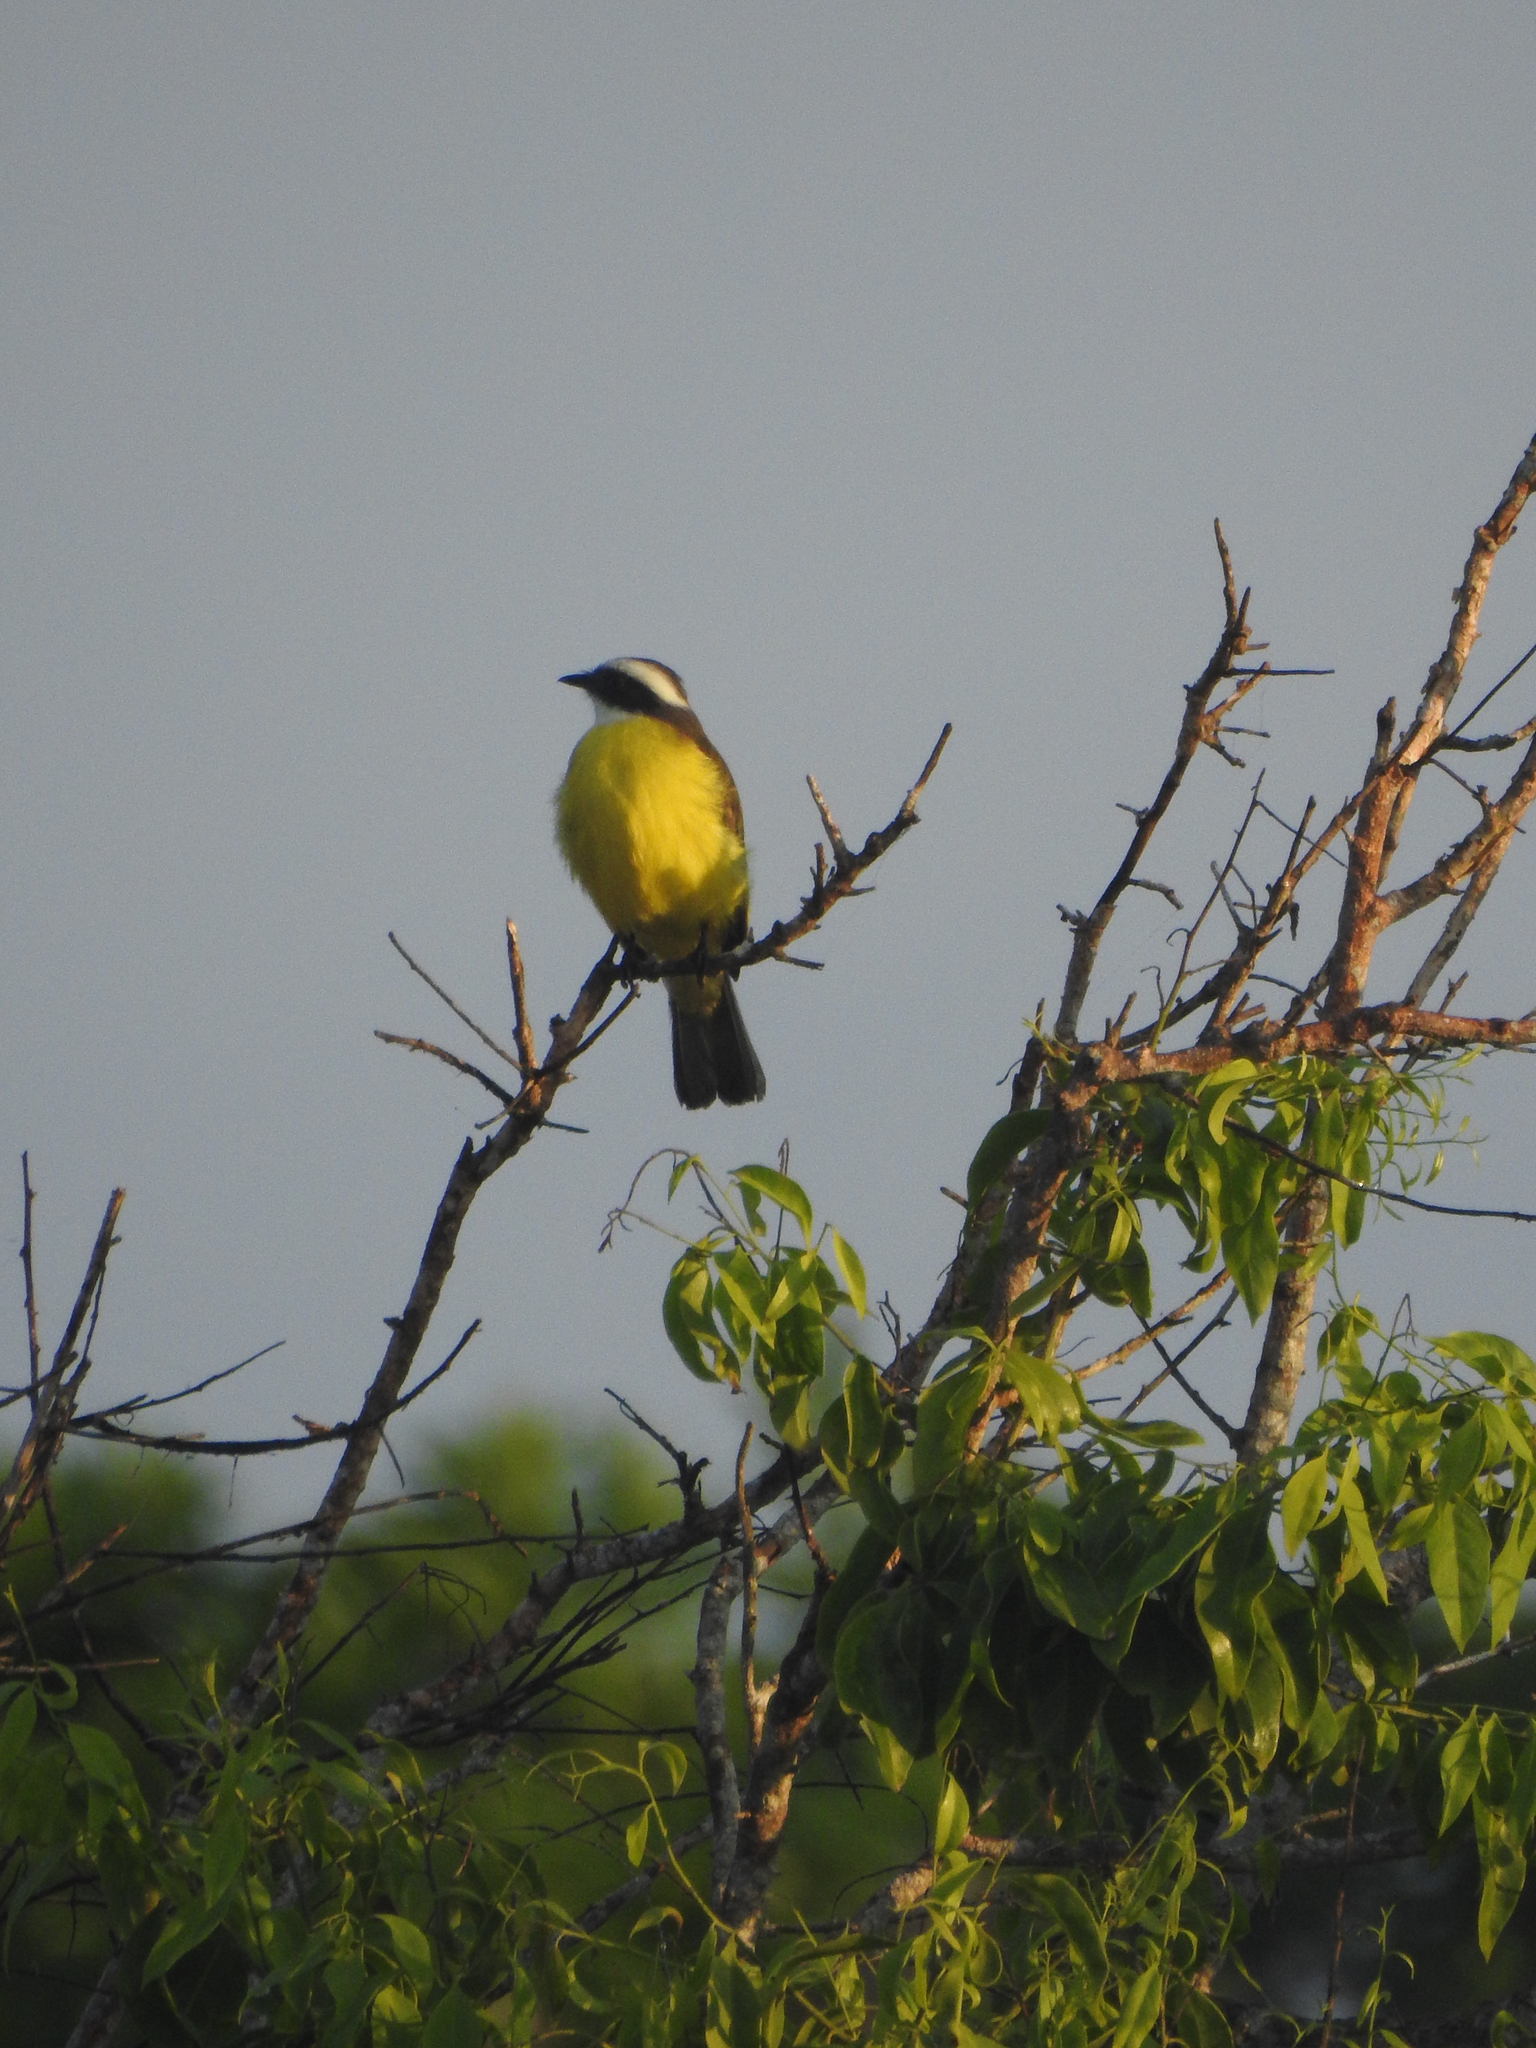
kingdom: Animalia
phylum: Chordata
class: Aves
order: Passeriformes
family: Tyrannidae
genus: Myiozetetes
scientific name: Myiozetetes similis
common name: Social flycatcher
